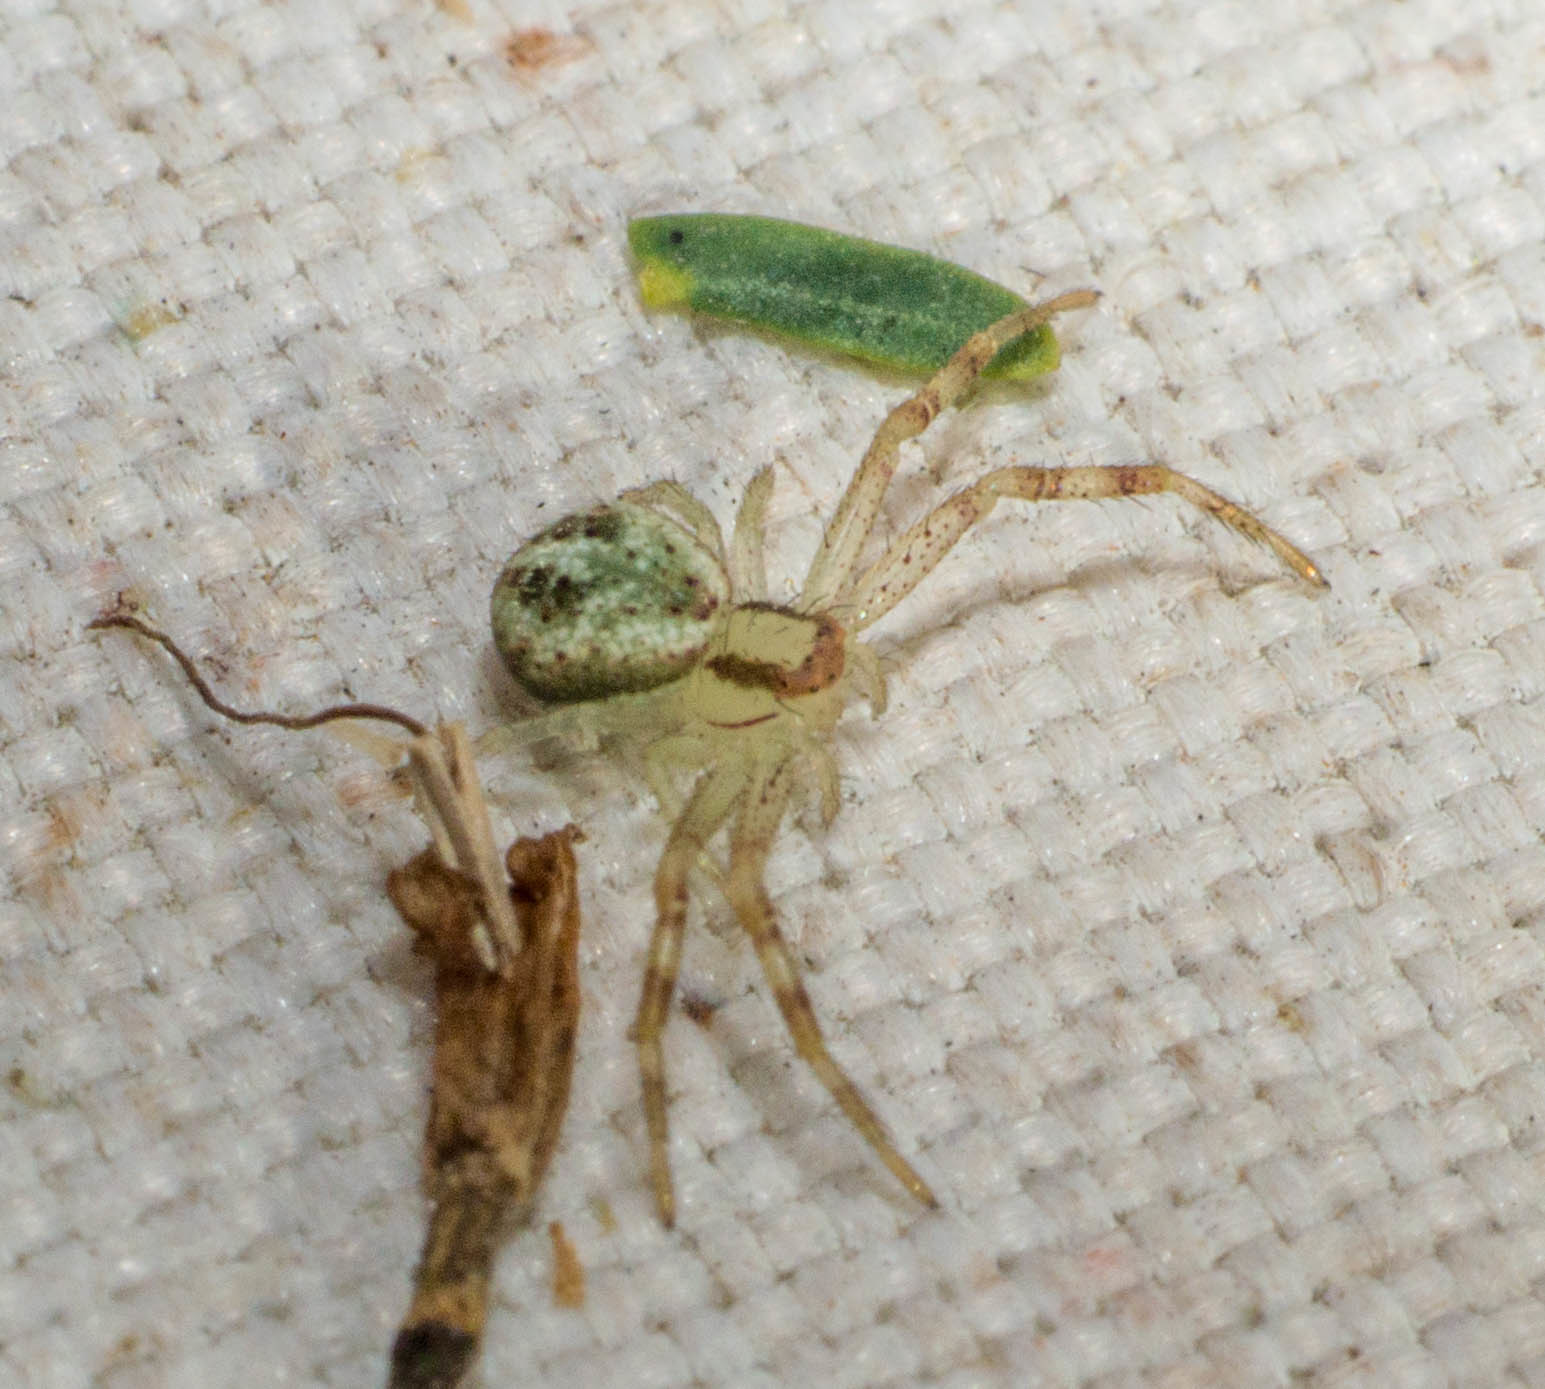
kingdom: Animalia
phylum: Arthropoda
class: Arachnida
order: Araneae
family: Thomisidae
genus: Misumenops
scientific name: Misumenops
